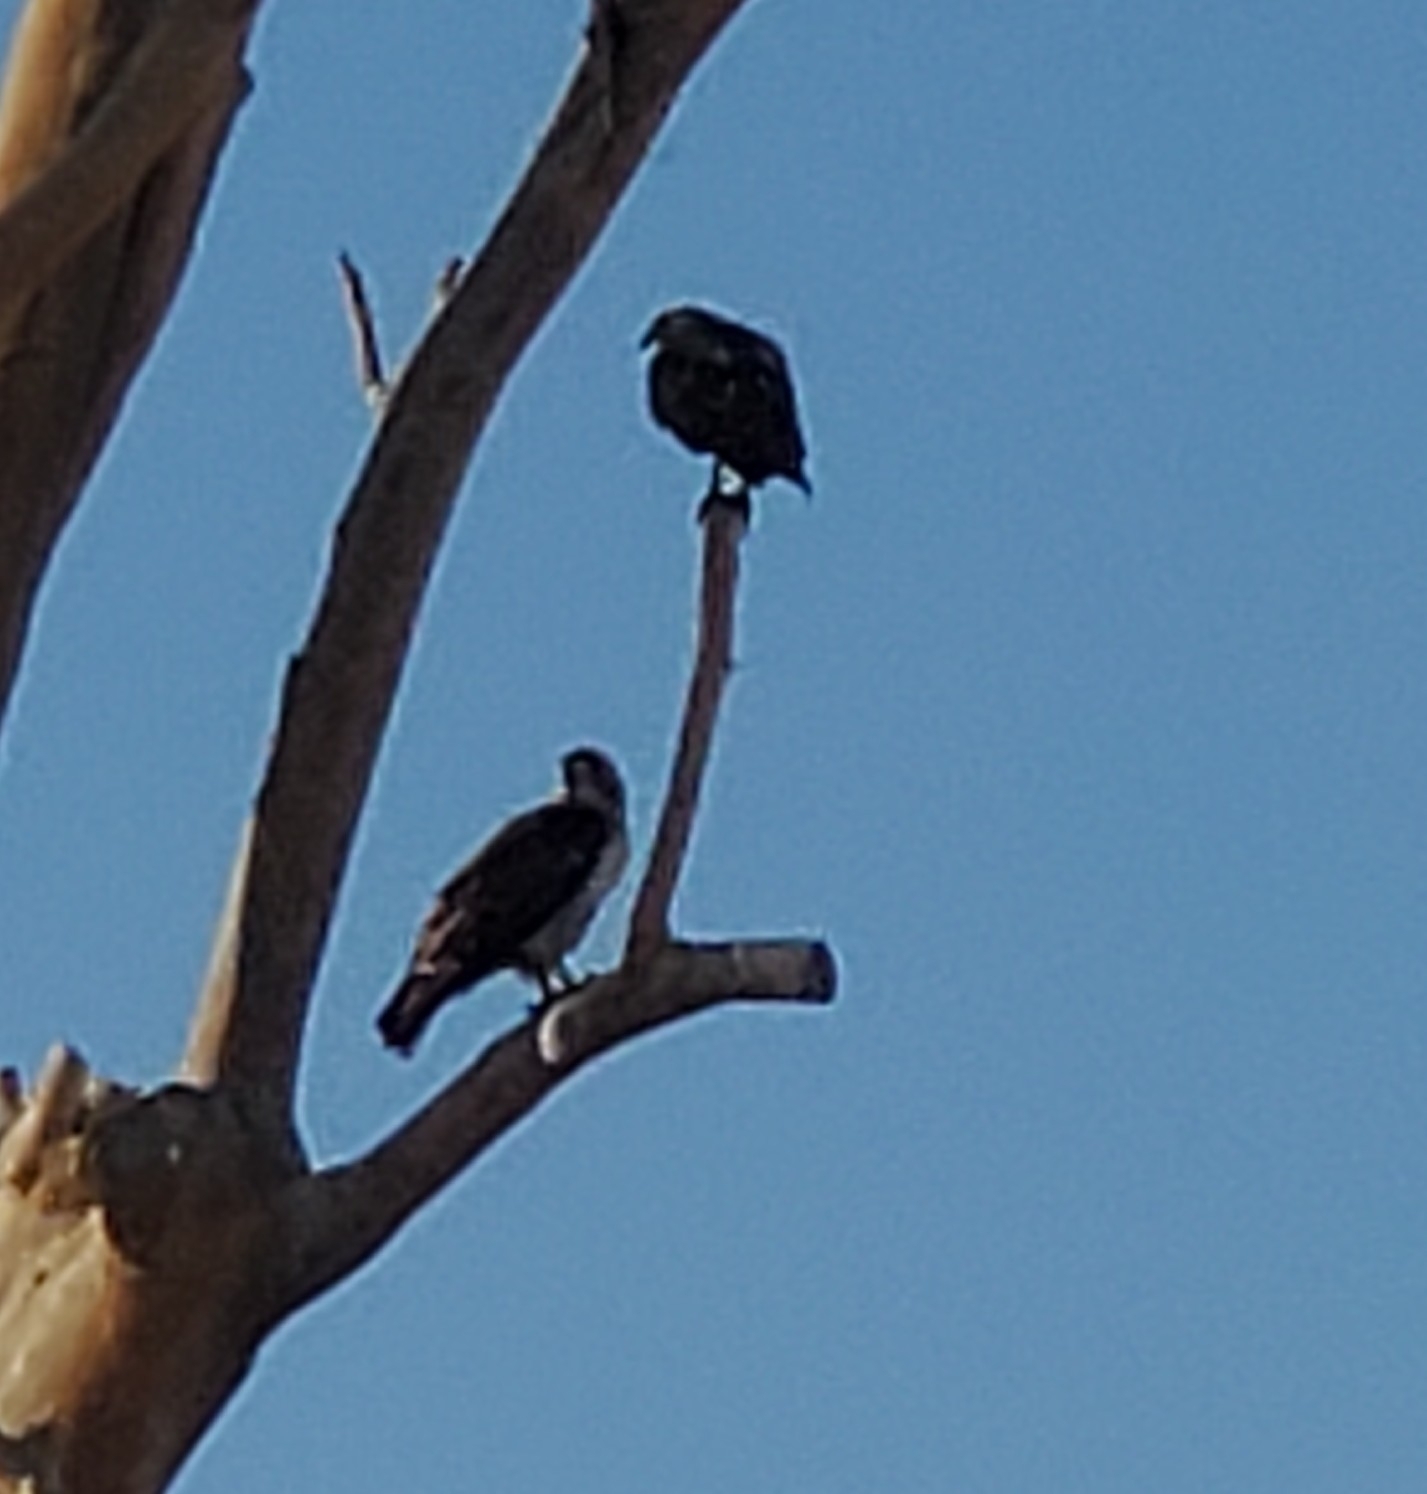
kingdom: Animalia
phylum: Chordata
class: Aves
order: Accipitriformes
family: Accipitridae
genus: Buteo
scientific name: Buteo jamaicensis
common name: Red-tailed hawk
